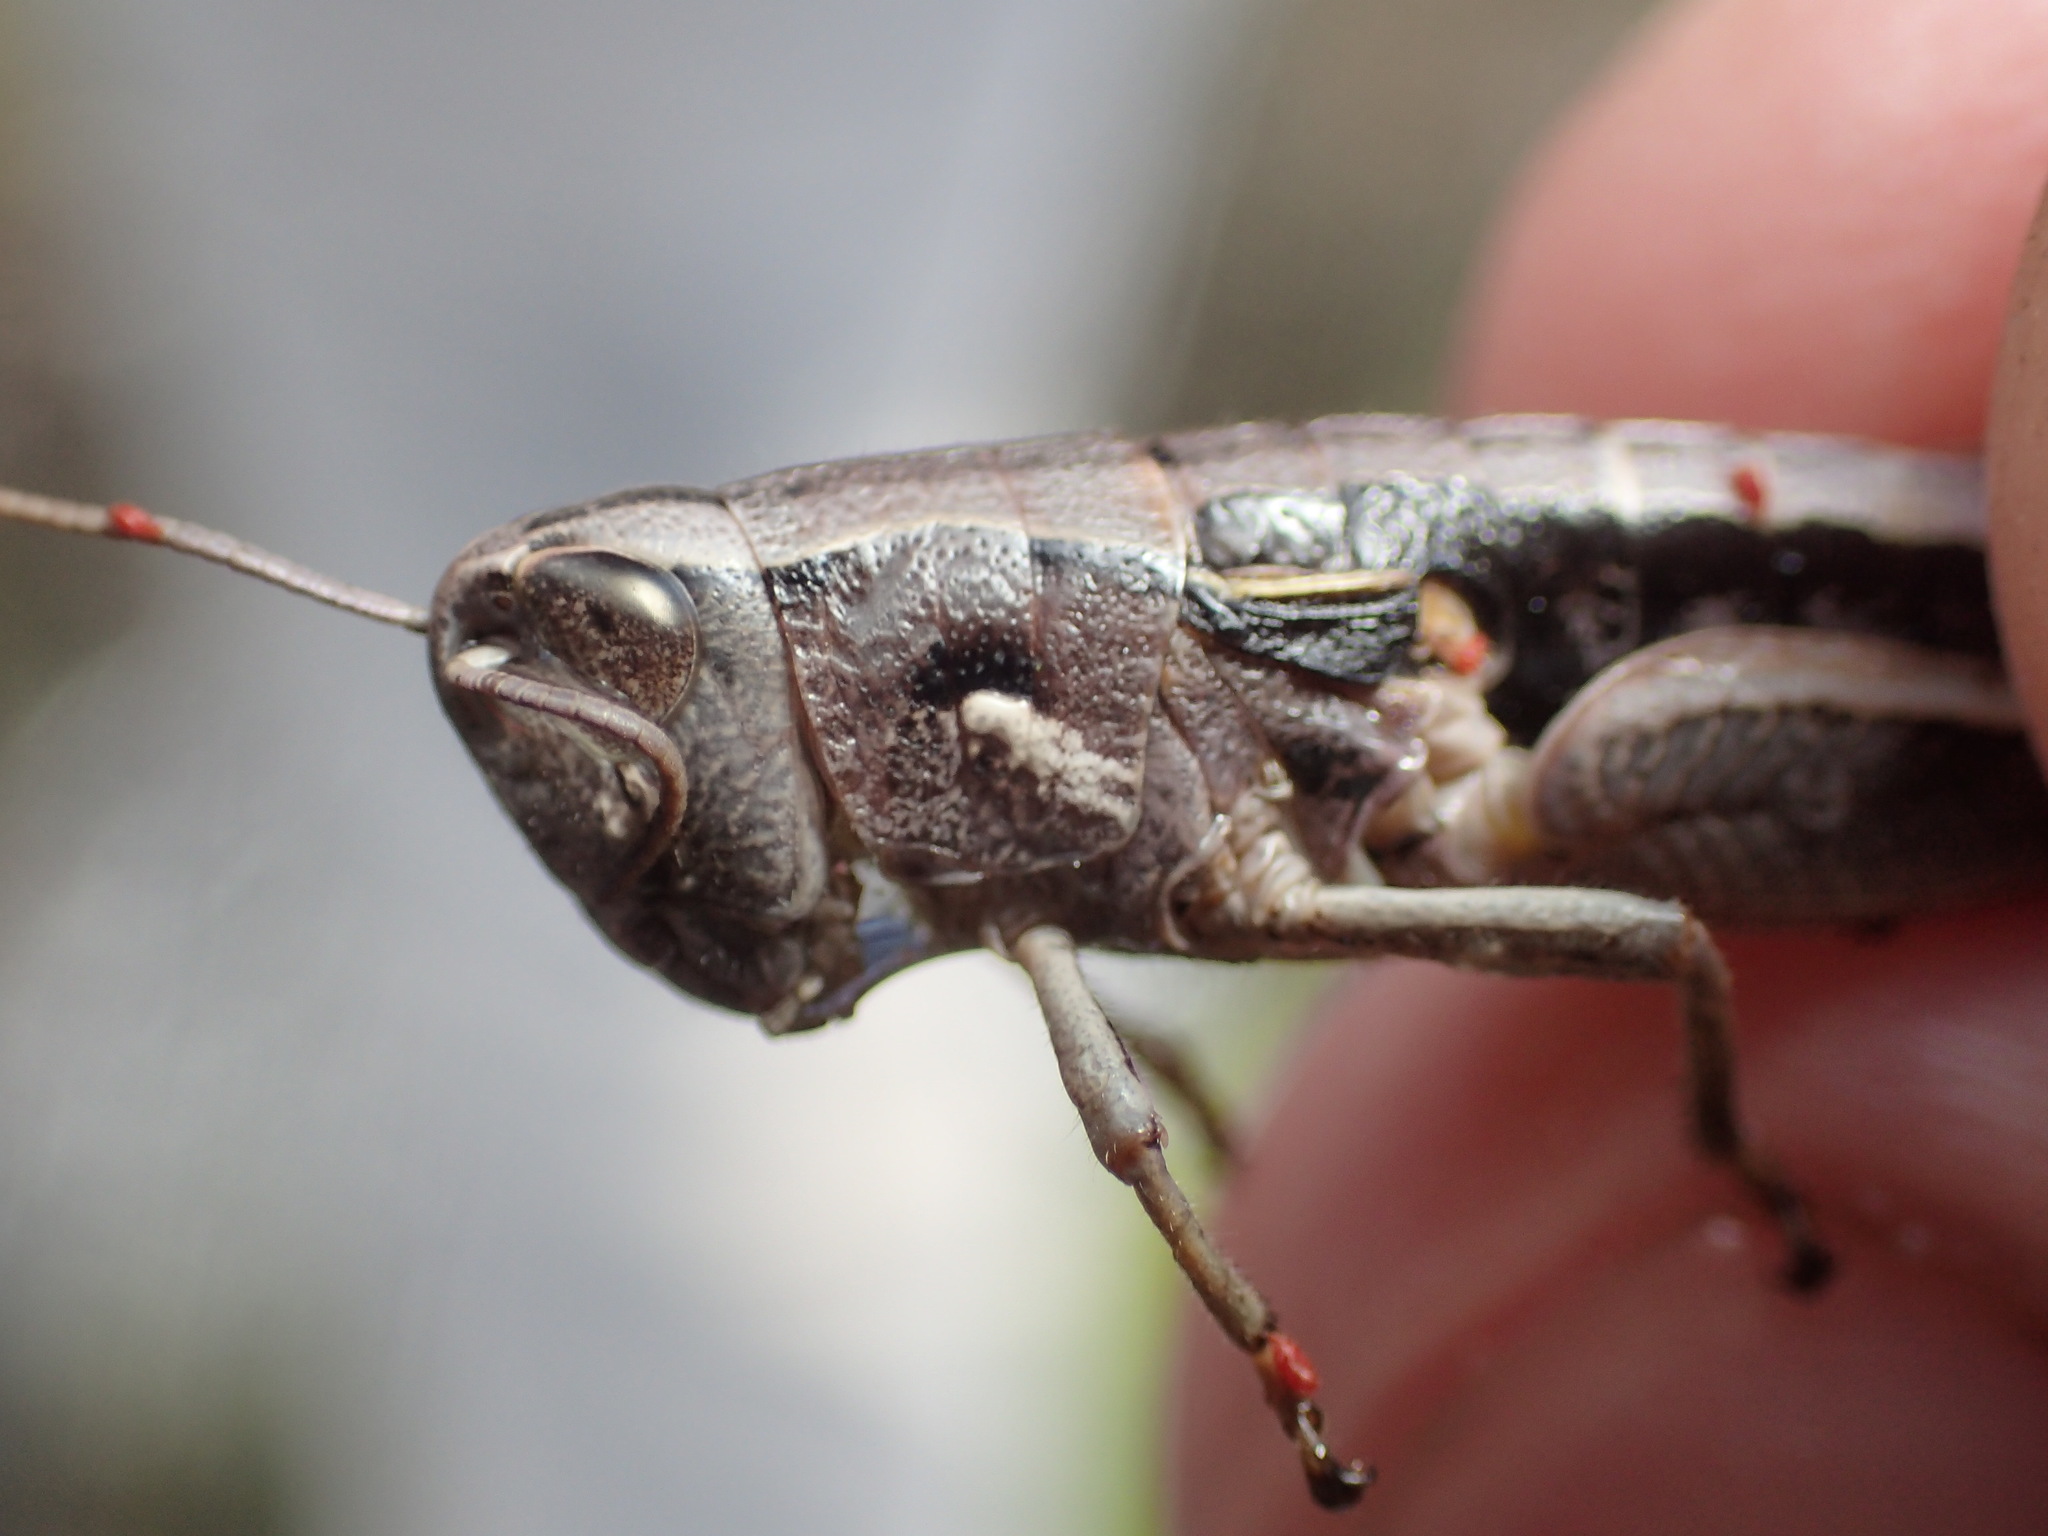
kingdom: Animalia
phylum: Arthropoda
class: Insecta
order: Orthoptera
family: Acrididae
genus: Russalpia
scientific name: Russalpia albertisi
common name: Tassie hopper
